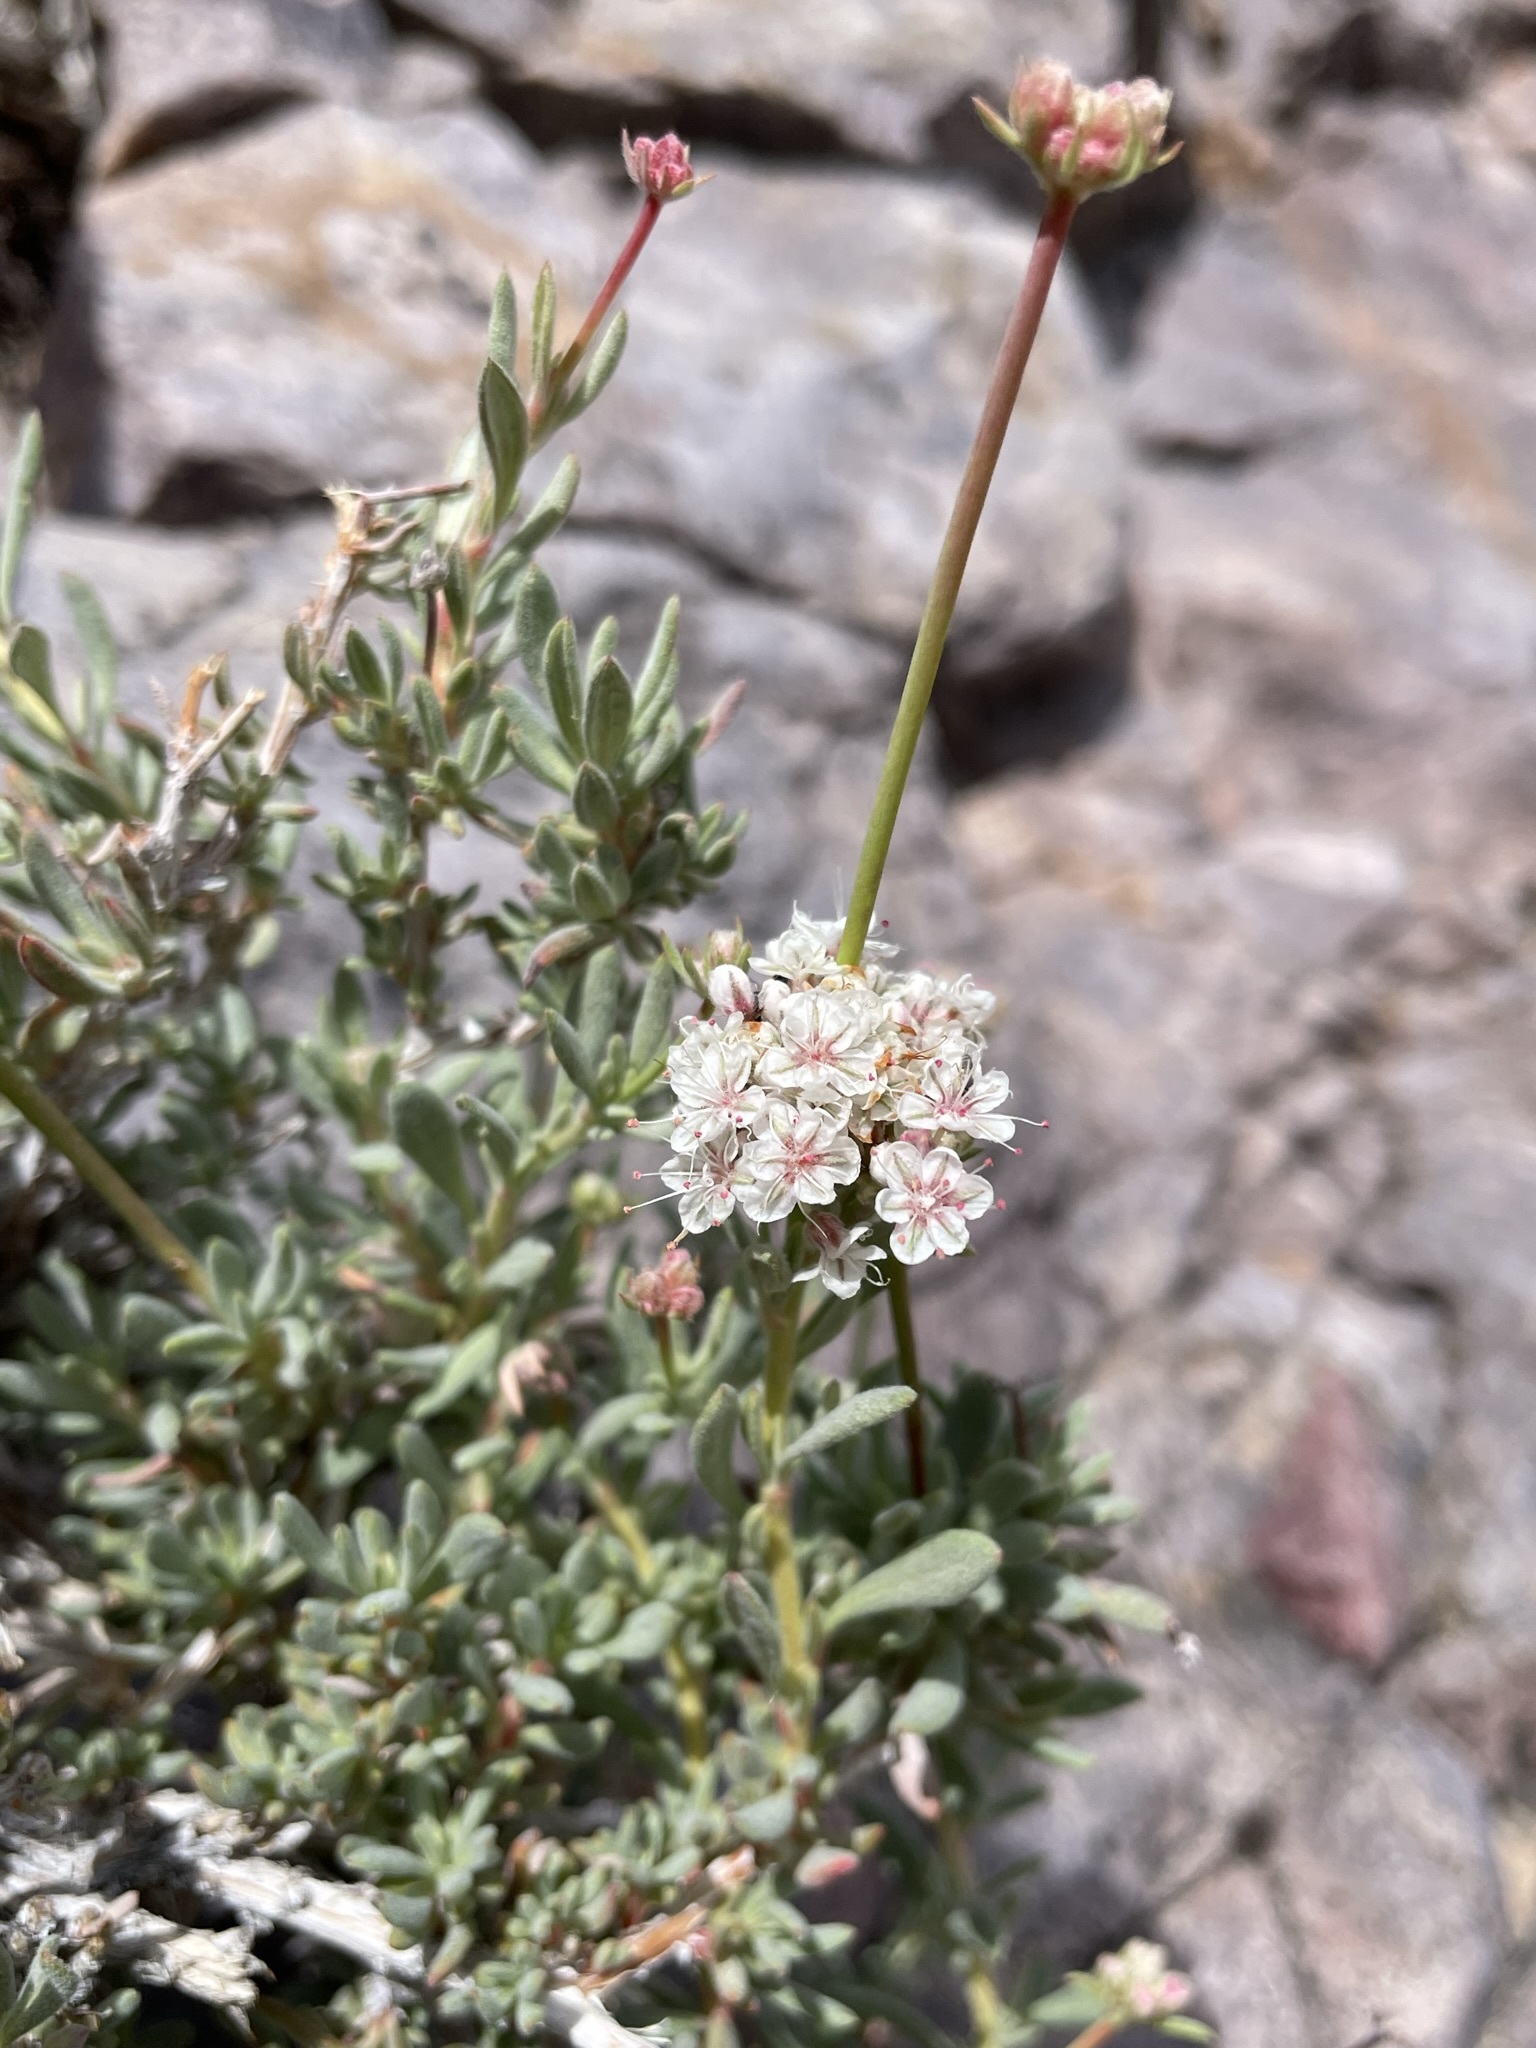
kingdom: Plantae
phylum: Tracheophyta
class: Magnoliopsida
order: Caryophyllales
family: Polygonaceae
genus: Eriogonum
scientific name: Eriogonum fasciculatum
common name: California wild buckwheat
